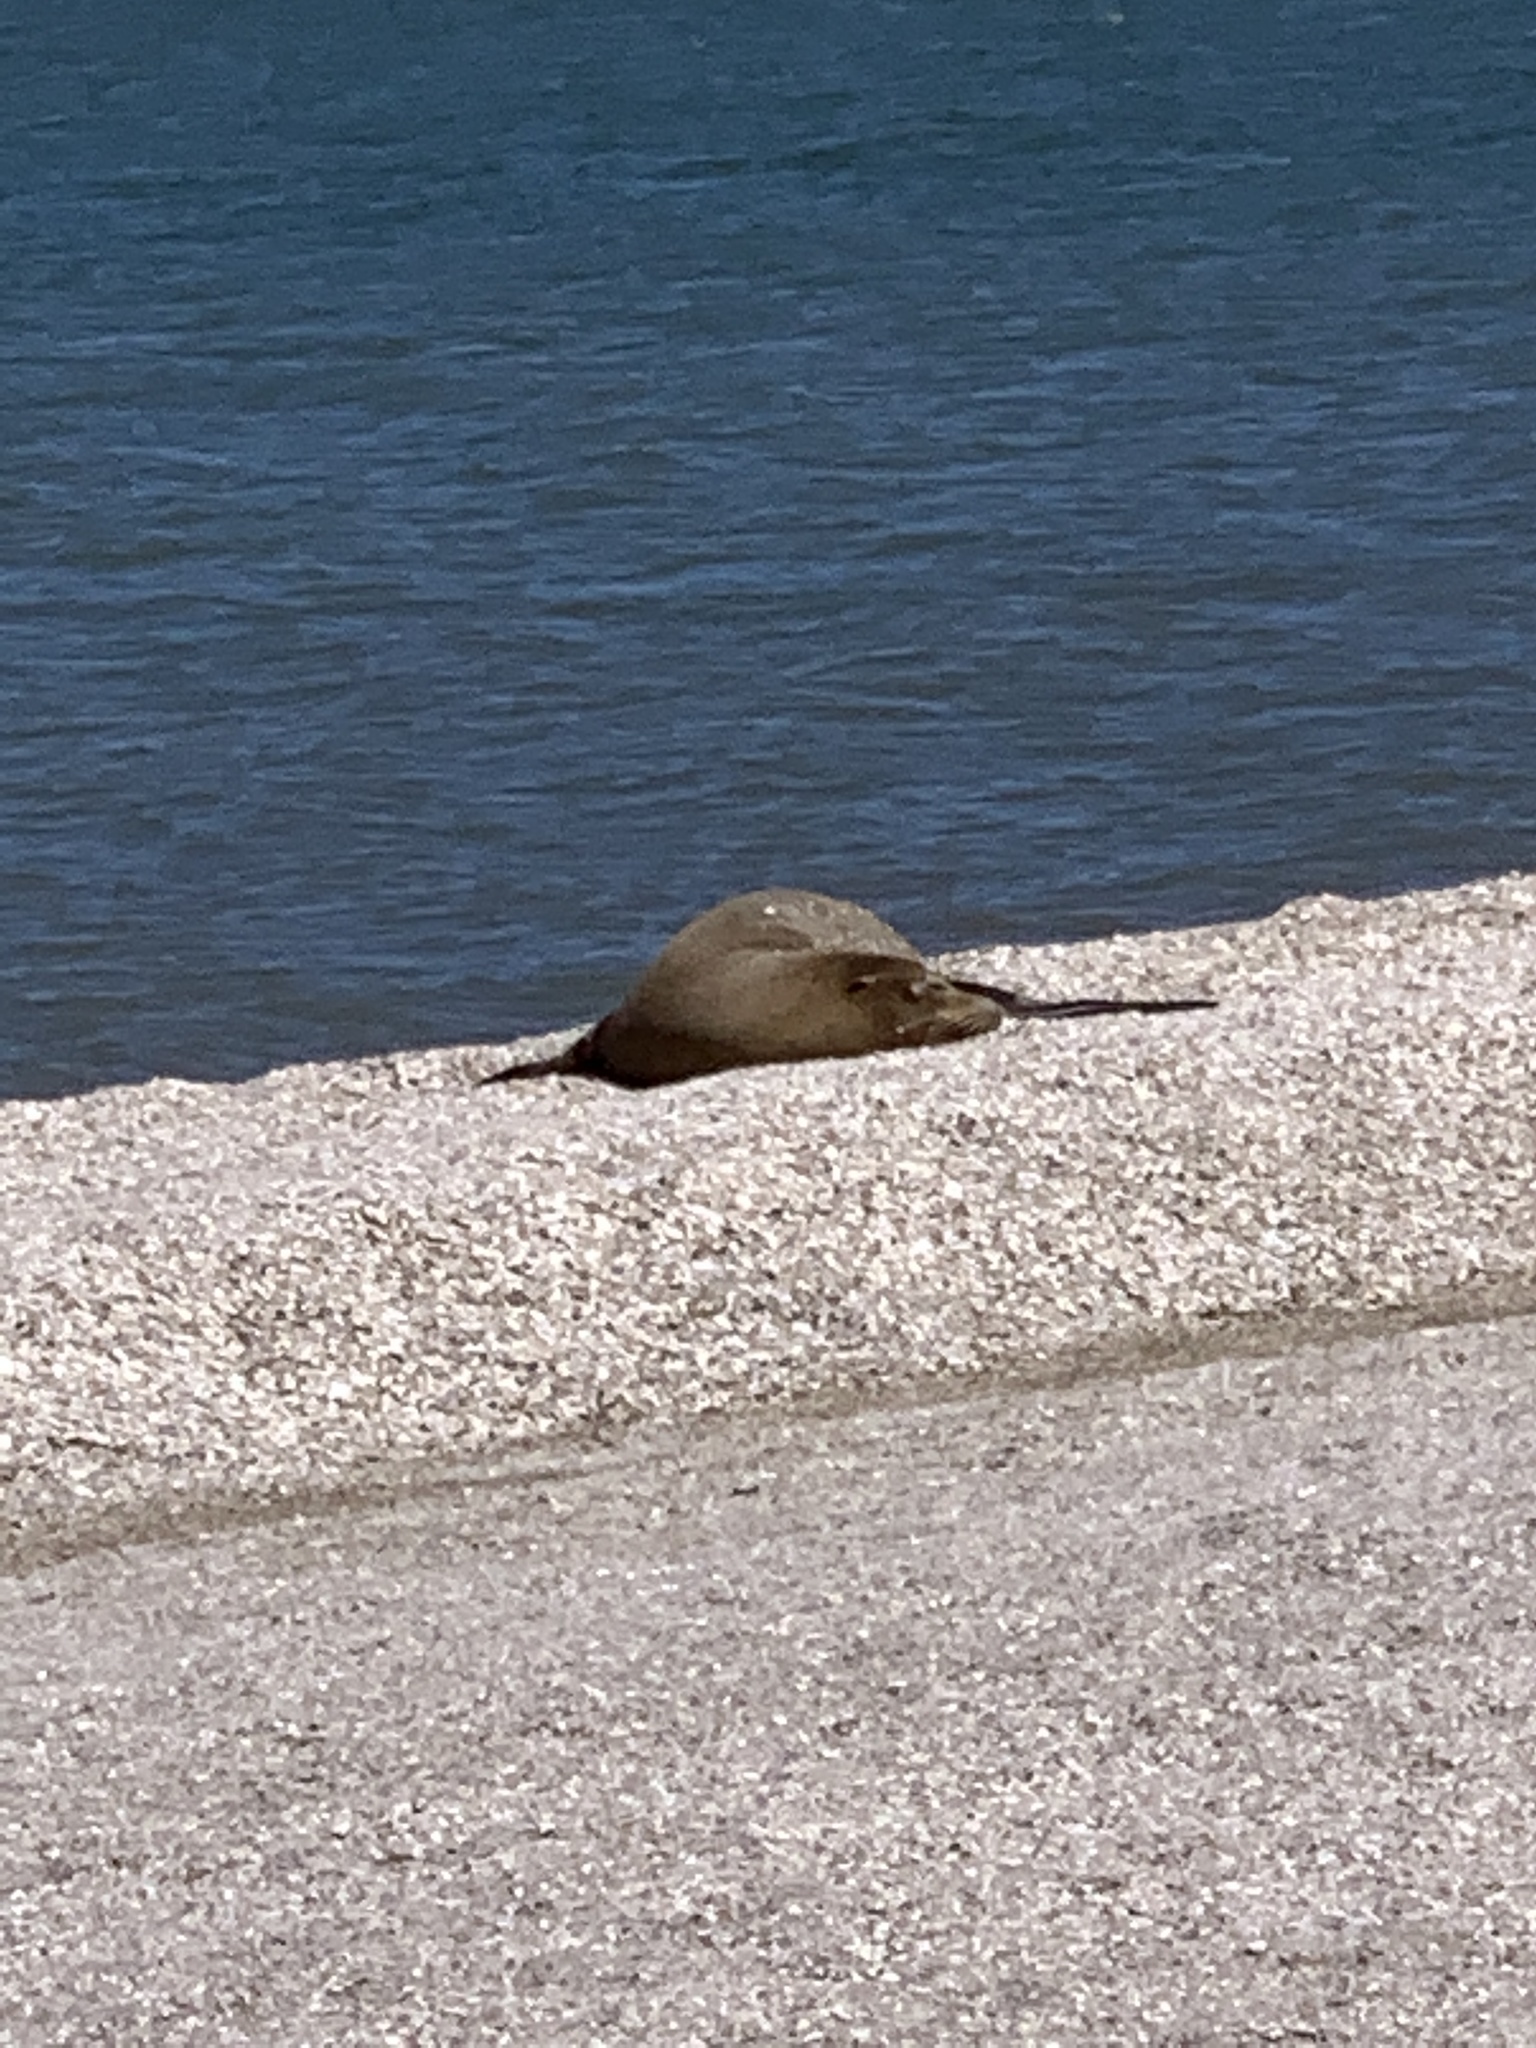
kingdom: Animalia
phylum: Chordata
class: Mammalia
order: Carnivora
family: Otariidae
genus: Zalophus
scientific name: Zalophus californianus
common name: California sea lion
